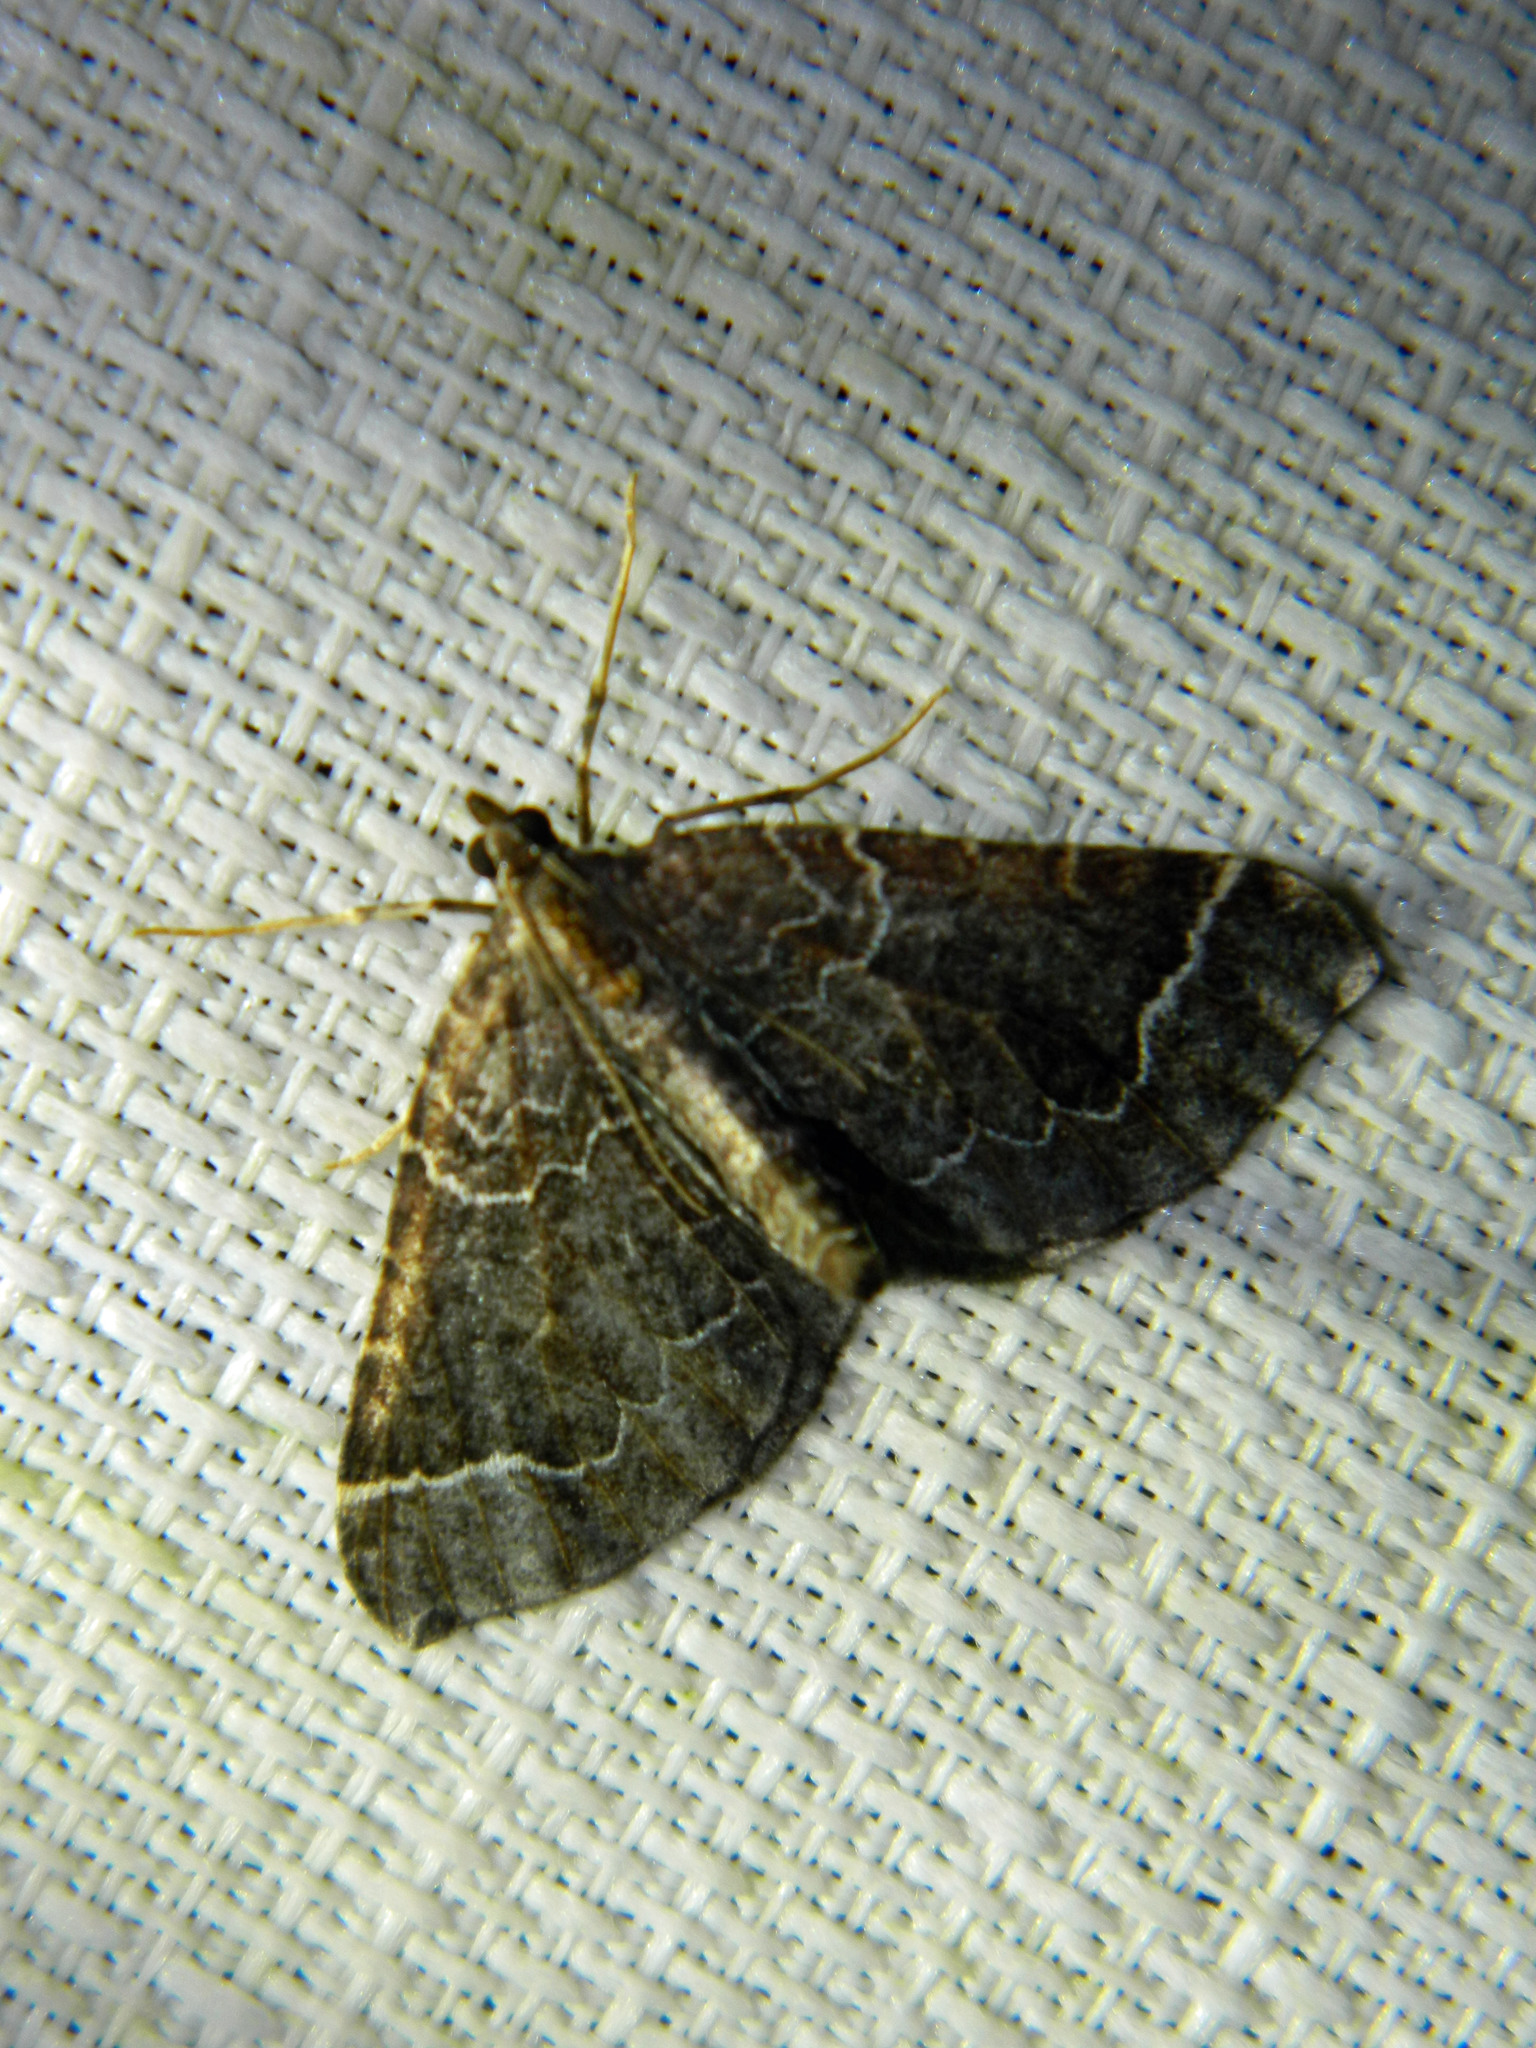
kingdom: Animalia
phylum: Arthropoda
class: Insecta
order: Lepidoptera
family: Geometridae
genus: Eulithis
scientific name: Eulithis flavibrunneata
